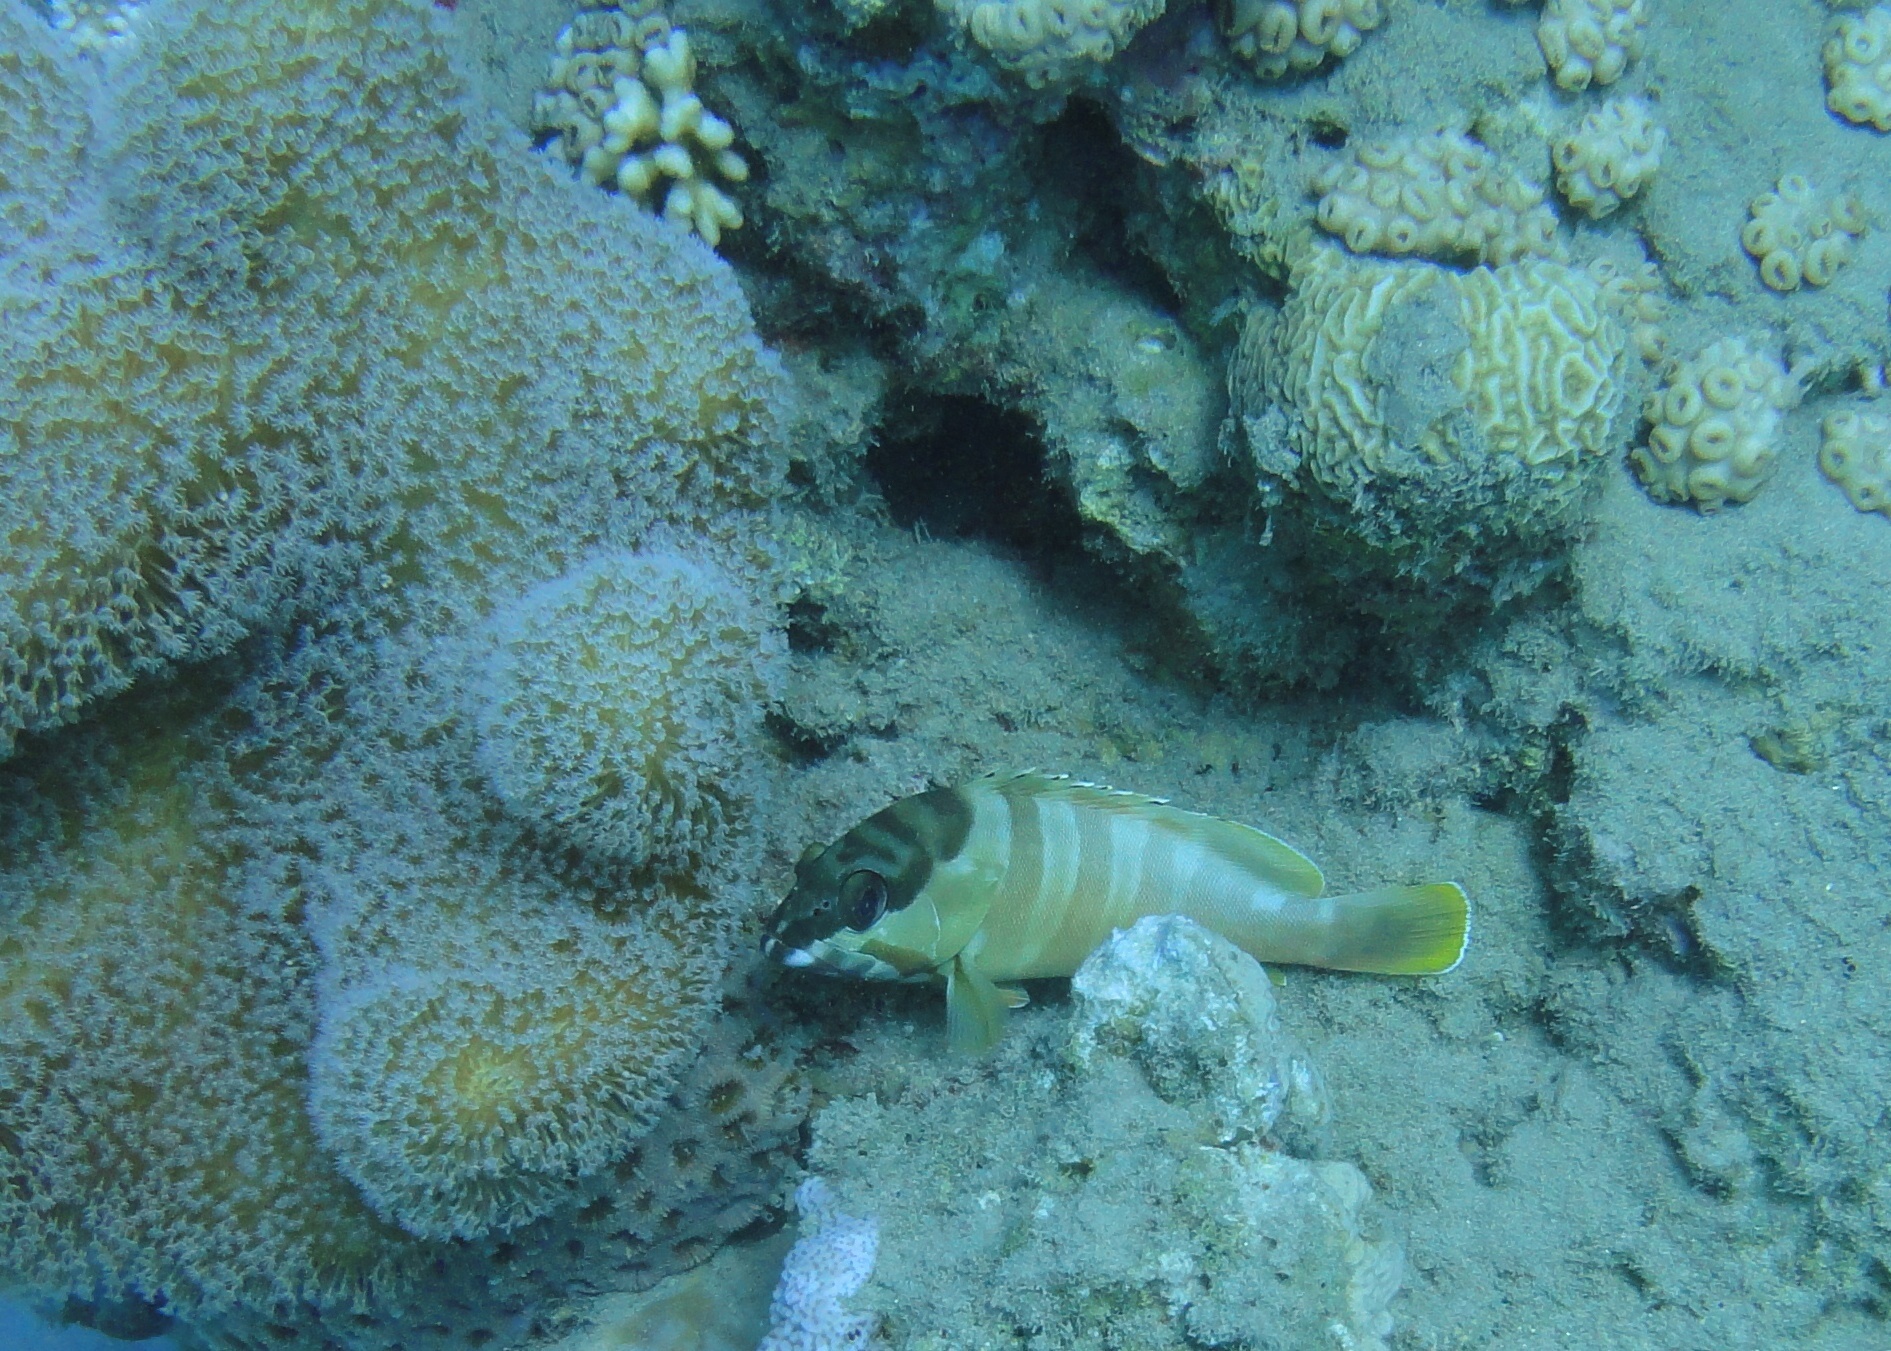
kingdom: Animalia
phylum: Chordata
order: Perciformes
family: Serranidae
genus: Epinephelus
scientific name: Epinephelus fasciatus
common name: Blacktip grouper
